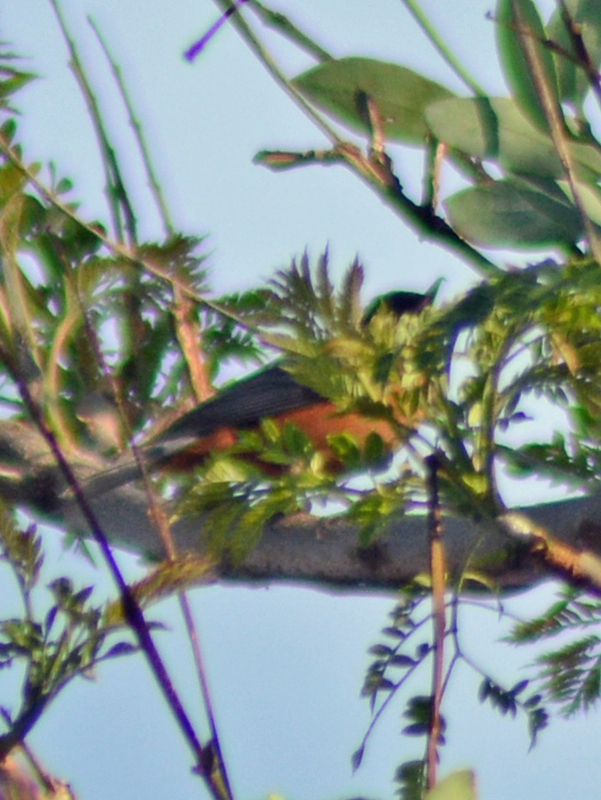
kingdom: Animalia
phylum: Chordata
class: Aves
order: Passeriformes
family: Thraupidae
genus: Diglossa
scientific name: Diglossa baritula
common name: Cinnamon-bellied flowerpiercer
